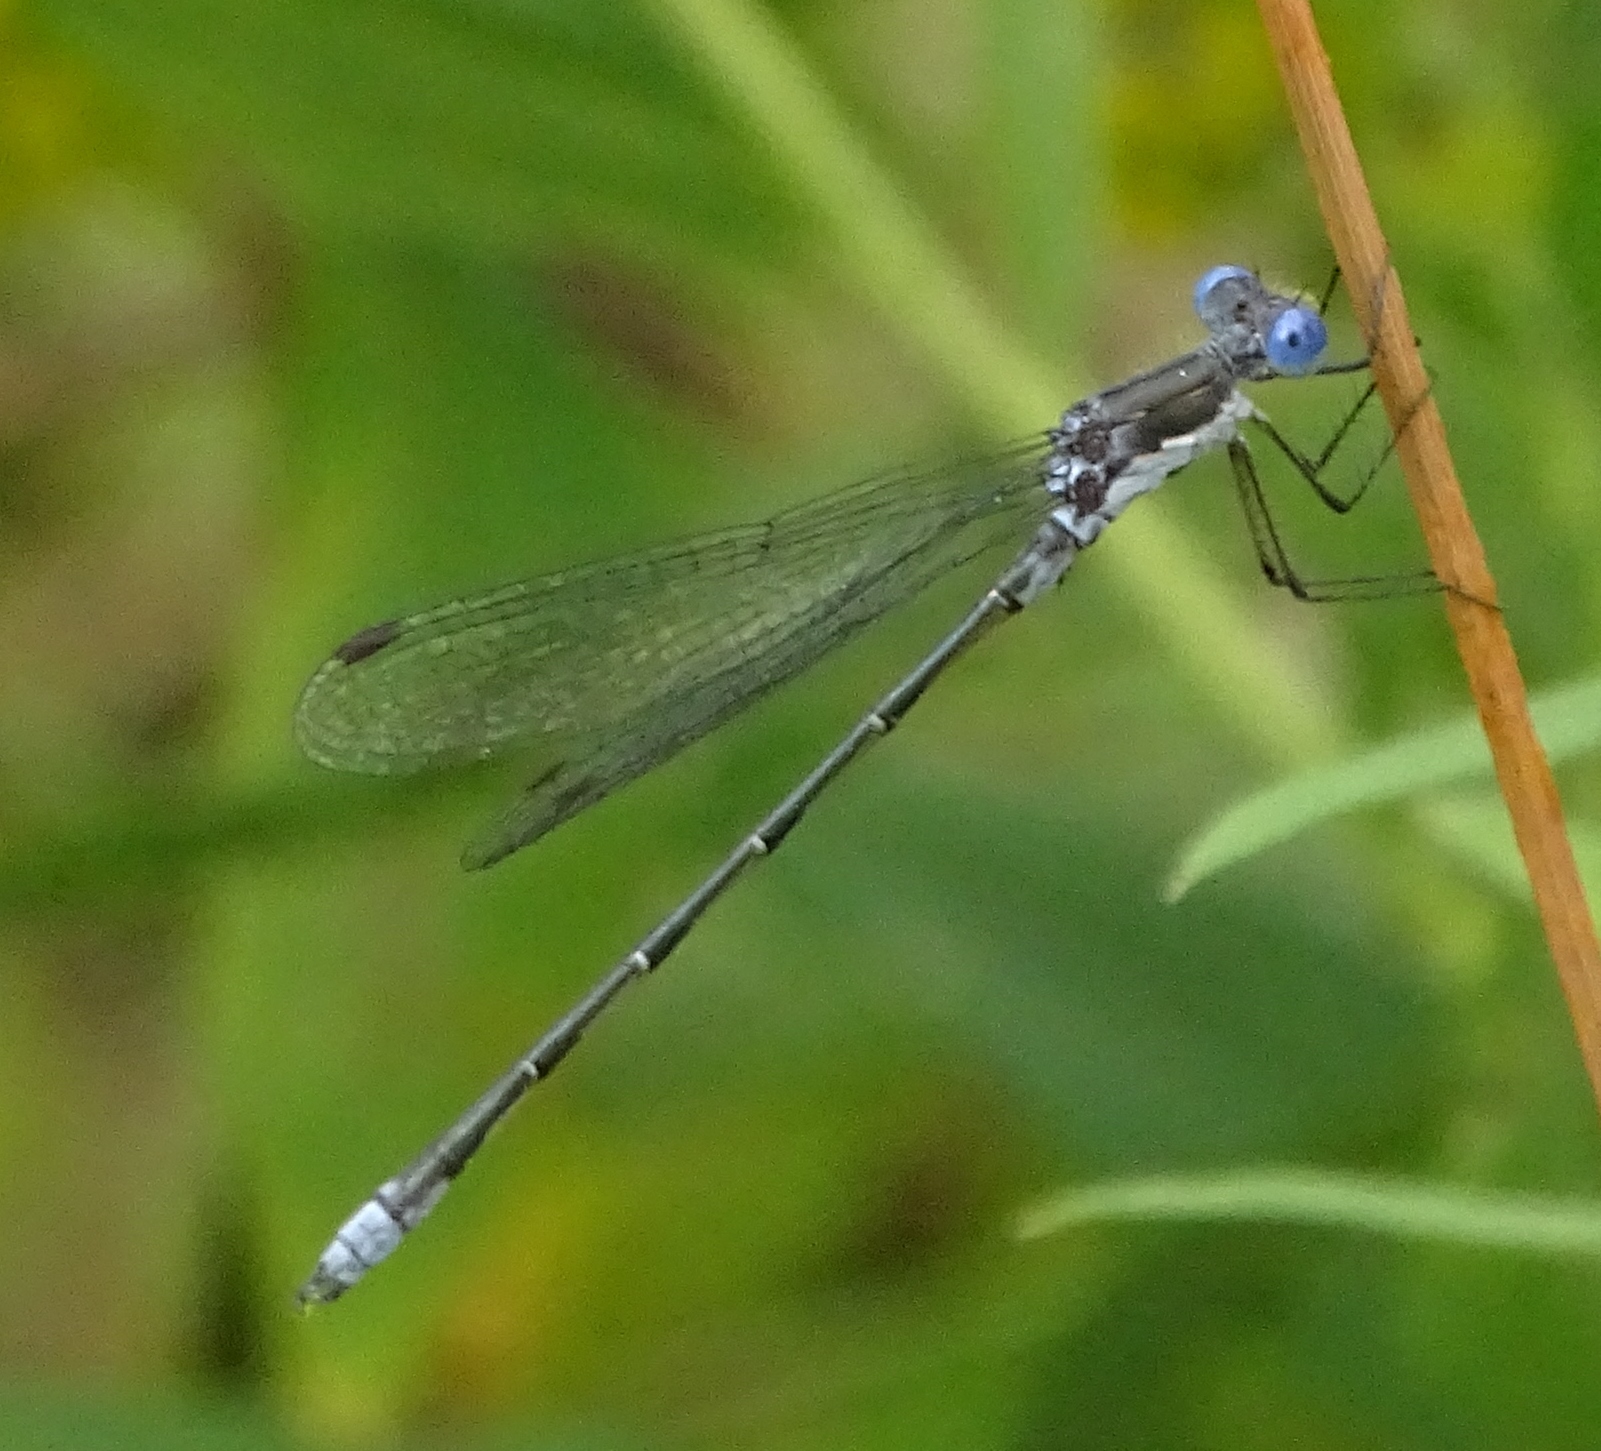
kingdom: Animalia
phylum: Arthropoda
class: Insecta
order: Odonata
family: Lestidae
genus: Lestes
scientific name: Lestes congener
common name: Spotted spreadwing
